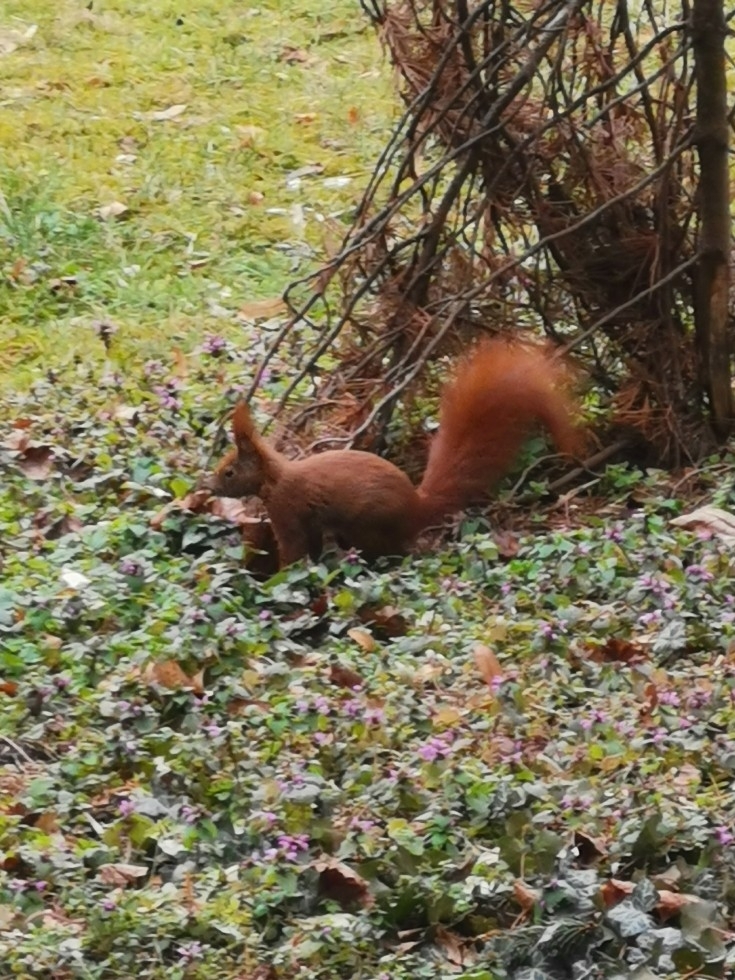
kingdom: Animalia
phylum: Chordata
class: Mammalia
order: Rodentia
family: Sciuridae
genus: Sciurus
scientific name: Sciurus vulgaris
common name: Eurasian red squirrel
